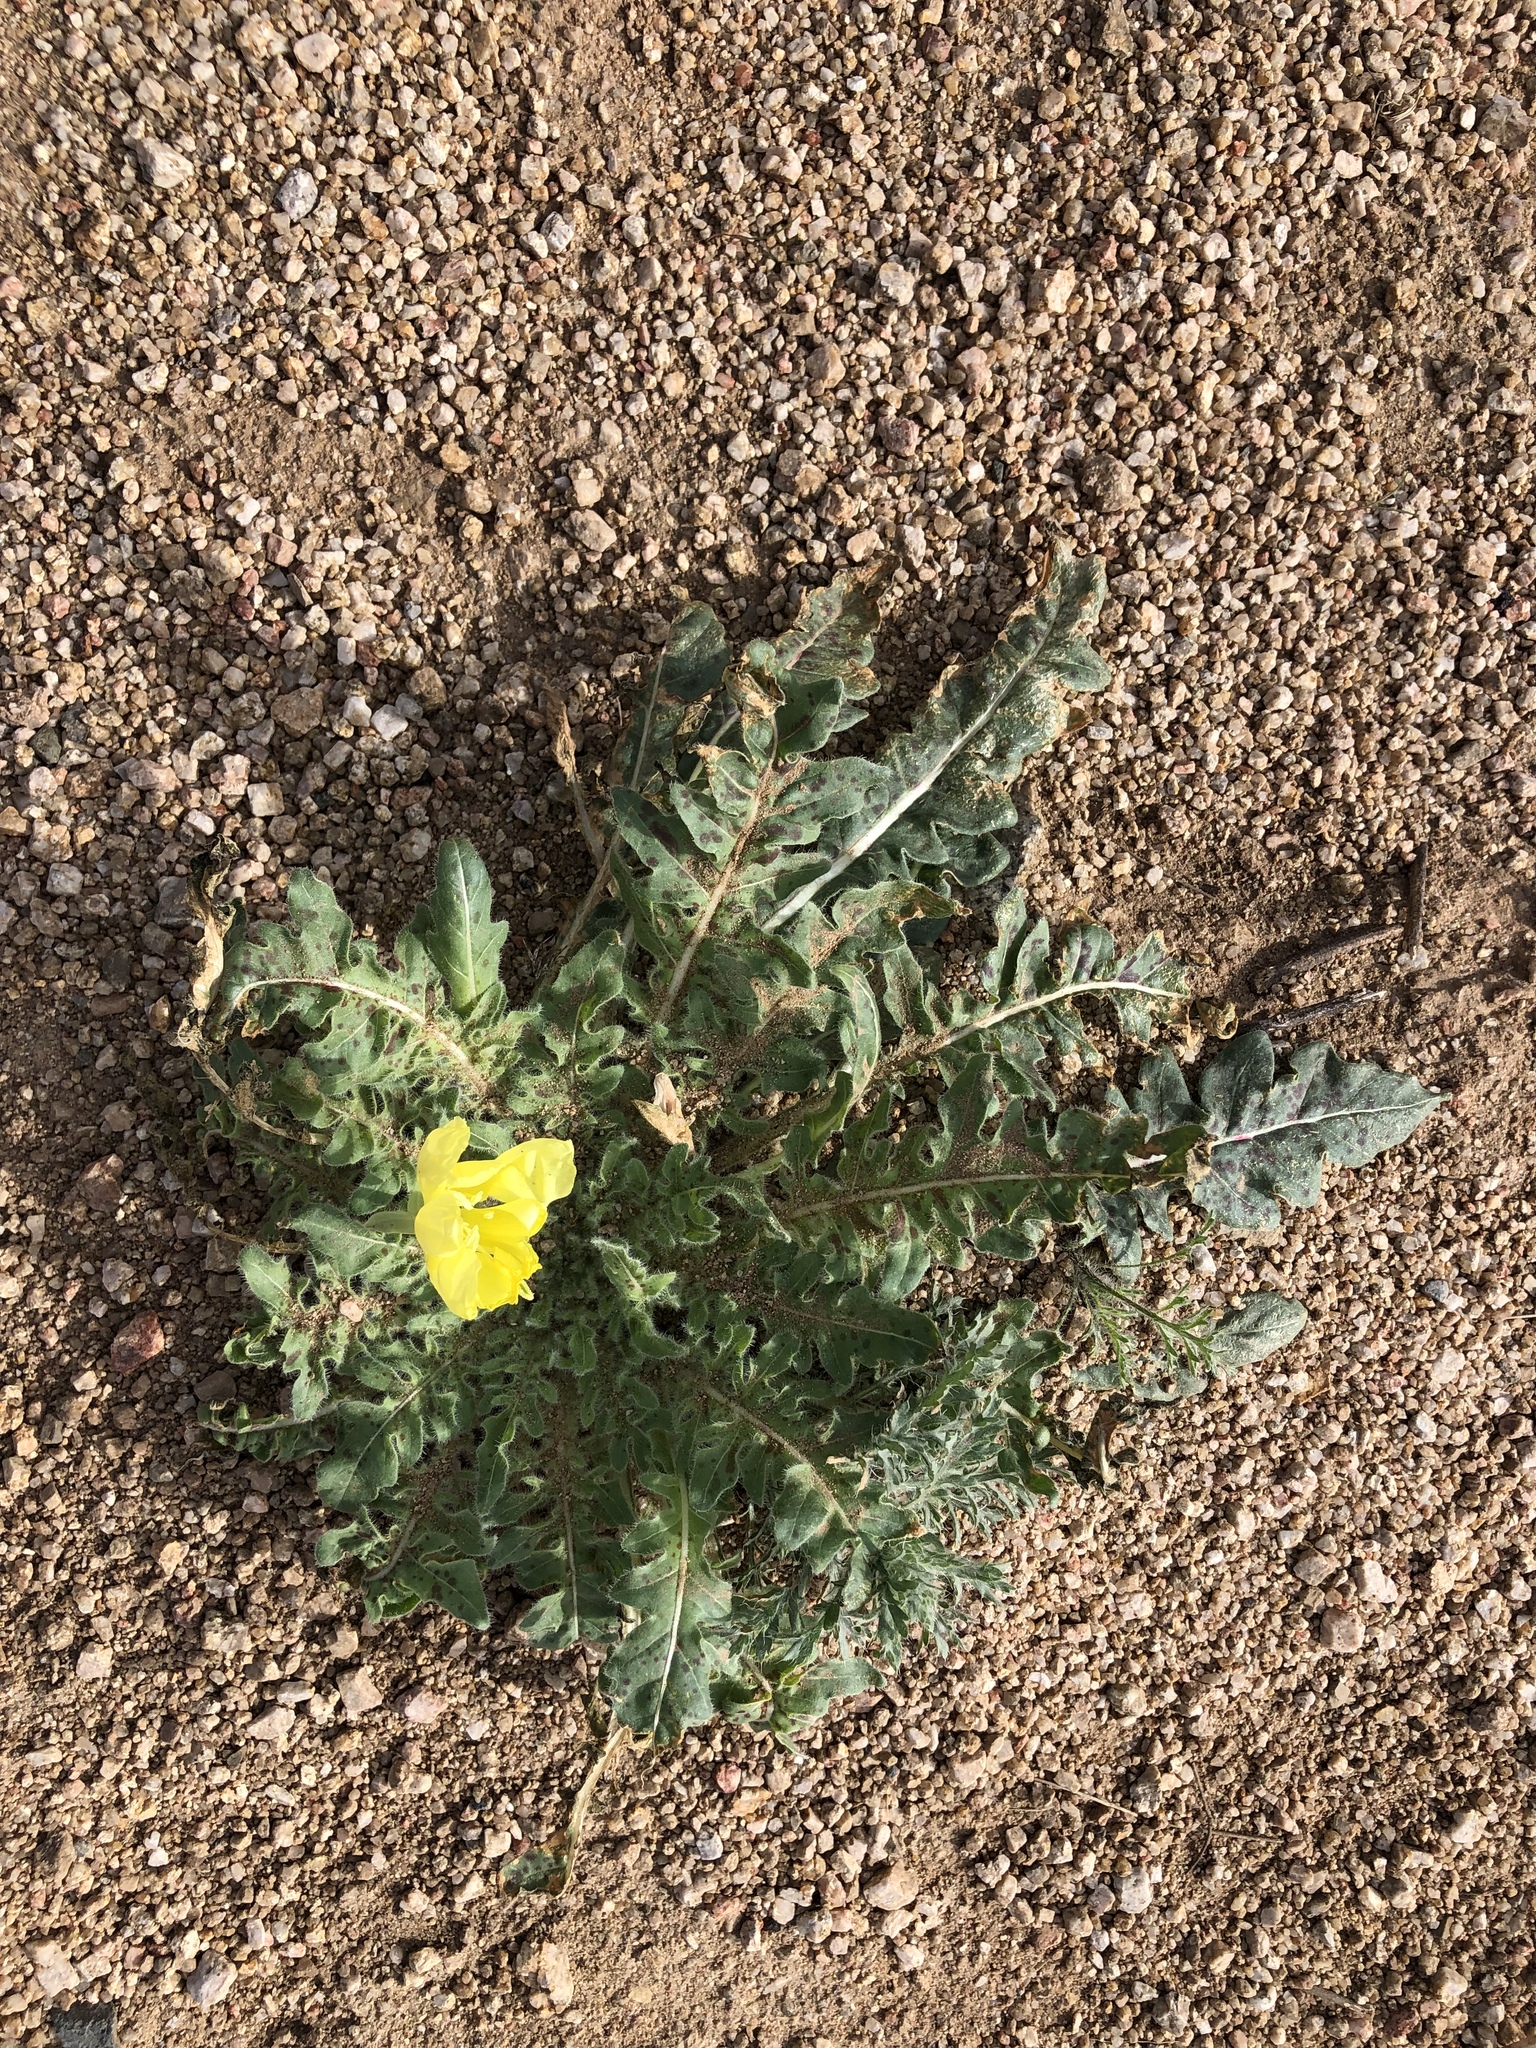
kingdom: Plantae
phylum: Tracheophyta
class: Magnoliopsida
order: Myrtales
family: Onagraceae
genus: Oenothera
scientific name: Oenothera primiveris
